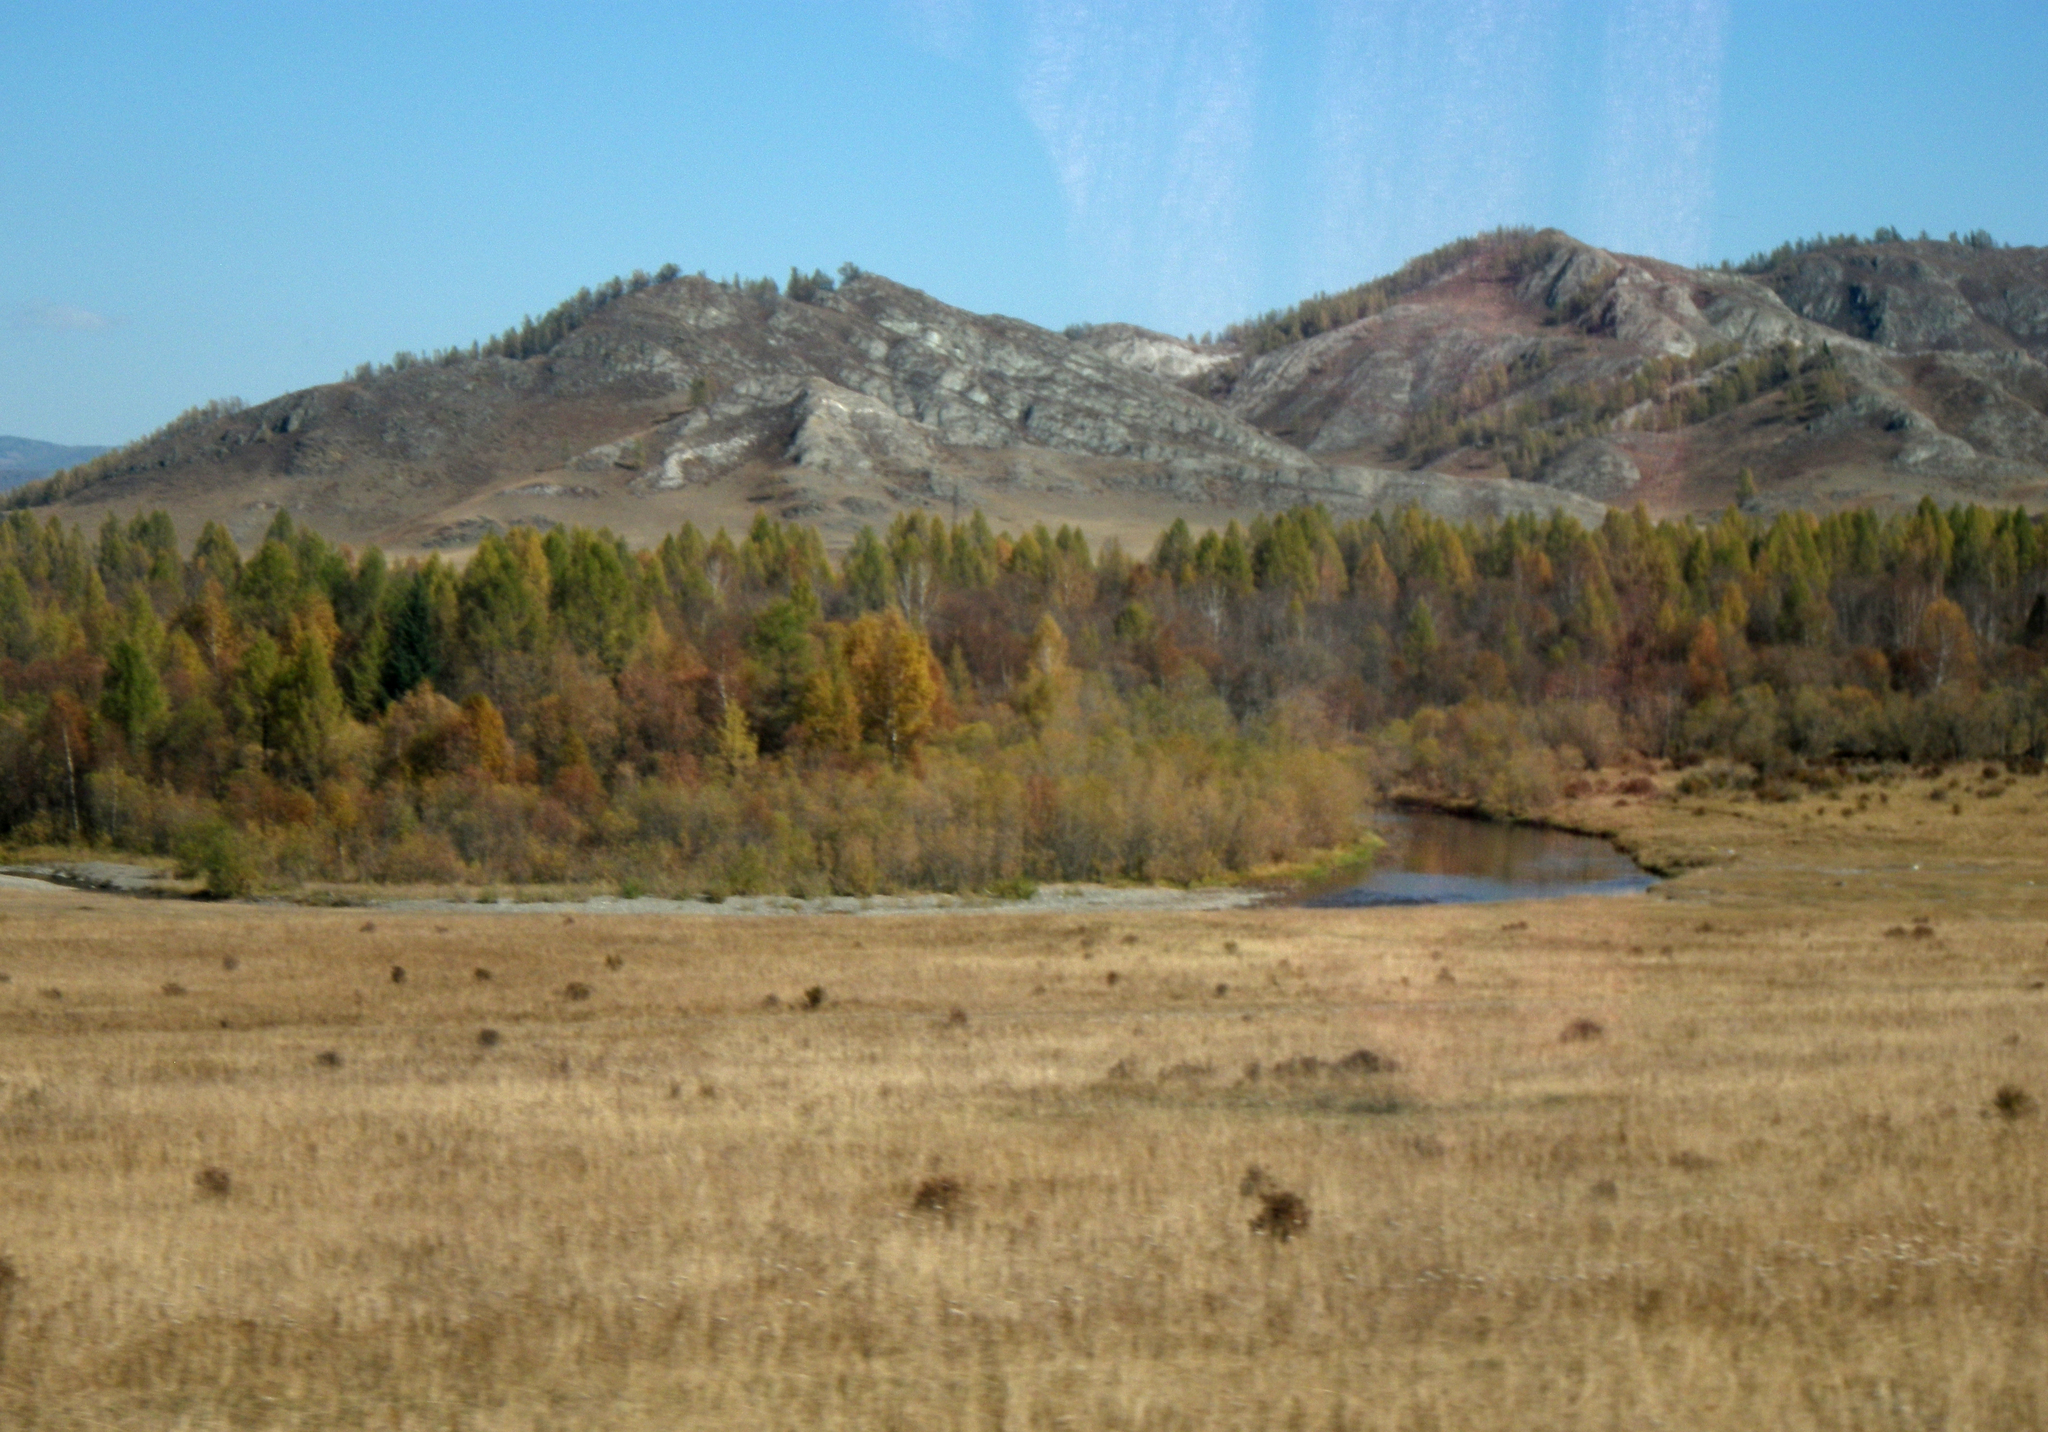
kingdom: Plantae
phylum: Tracheophyta
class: Pinopsida
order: Pinales
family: Pinaceae
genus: Larix
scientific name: Larix sibirica
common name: Siberian larch
